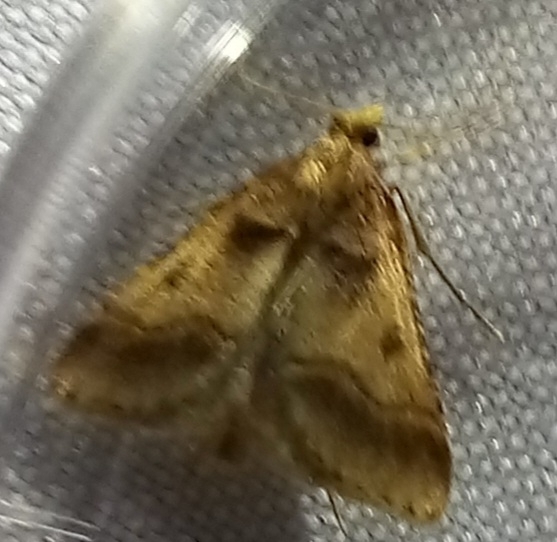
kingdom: Animalia
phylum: Arthropoda
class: Insecta
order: Lepidoptera
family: Pyralidae
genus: Stemmatophora
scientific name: Stemmatophora brunnealis
